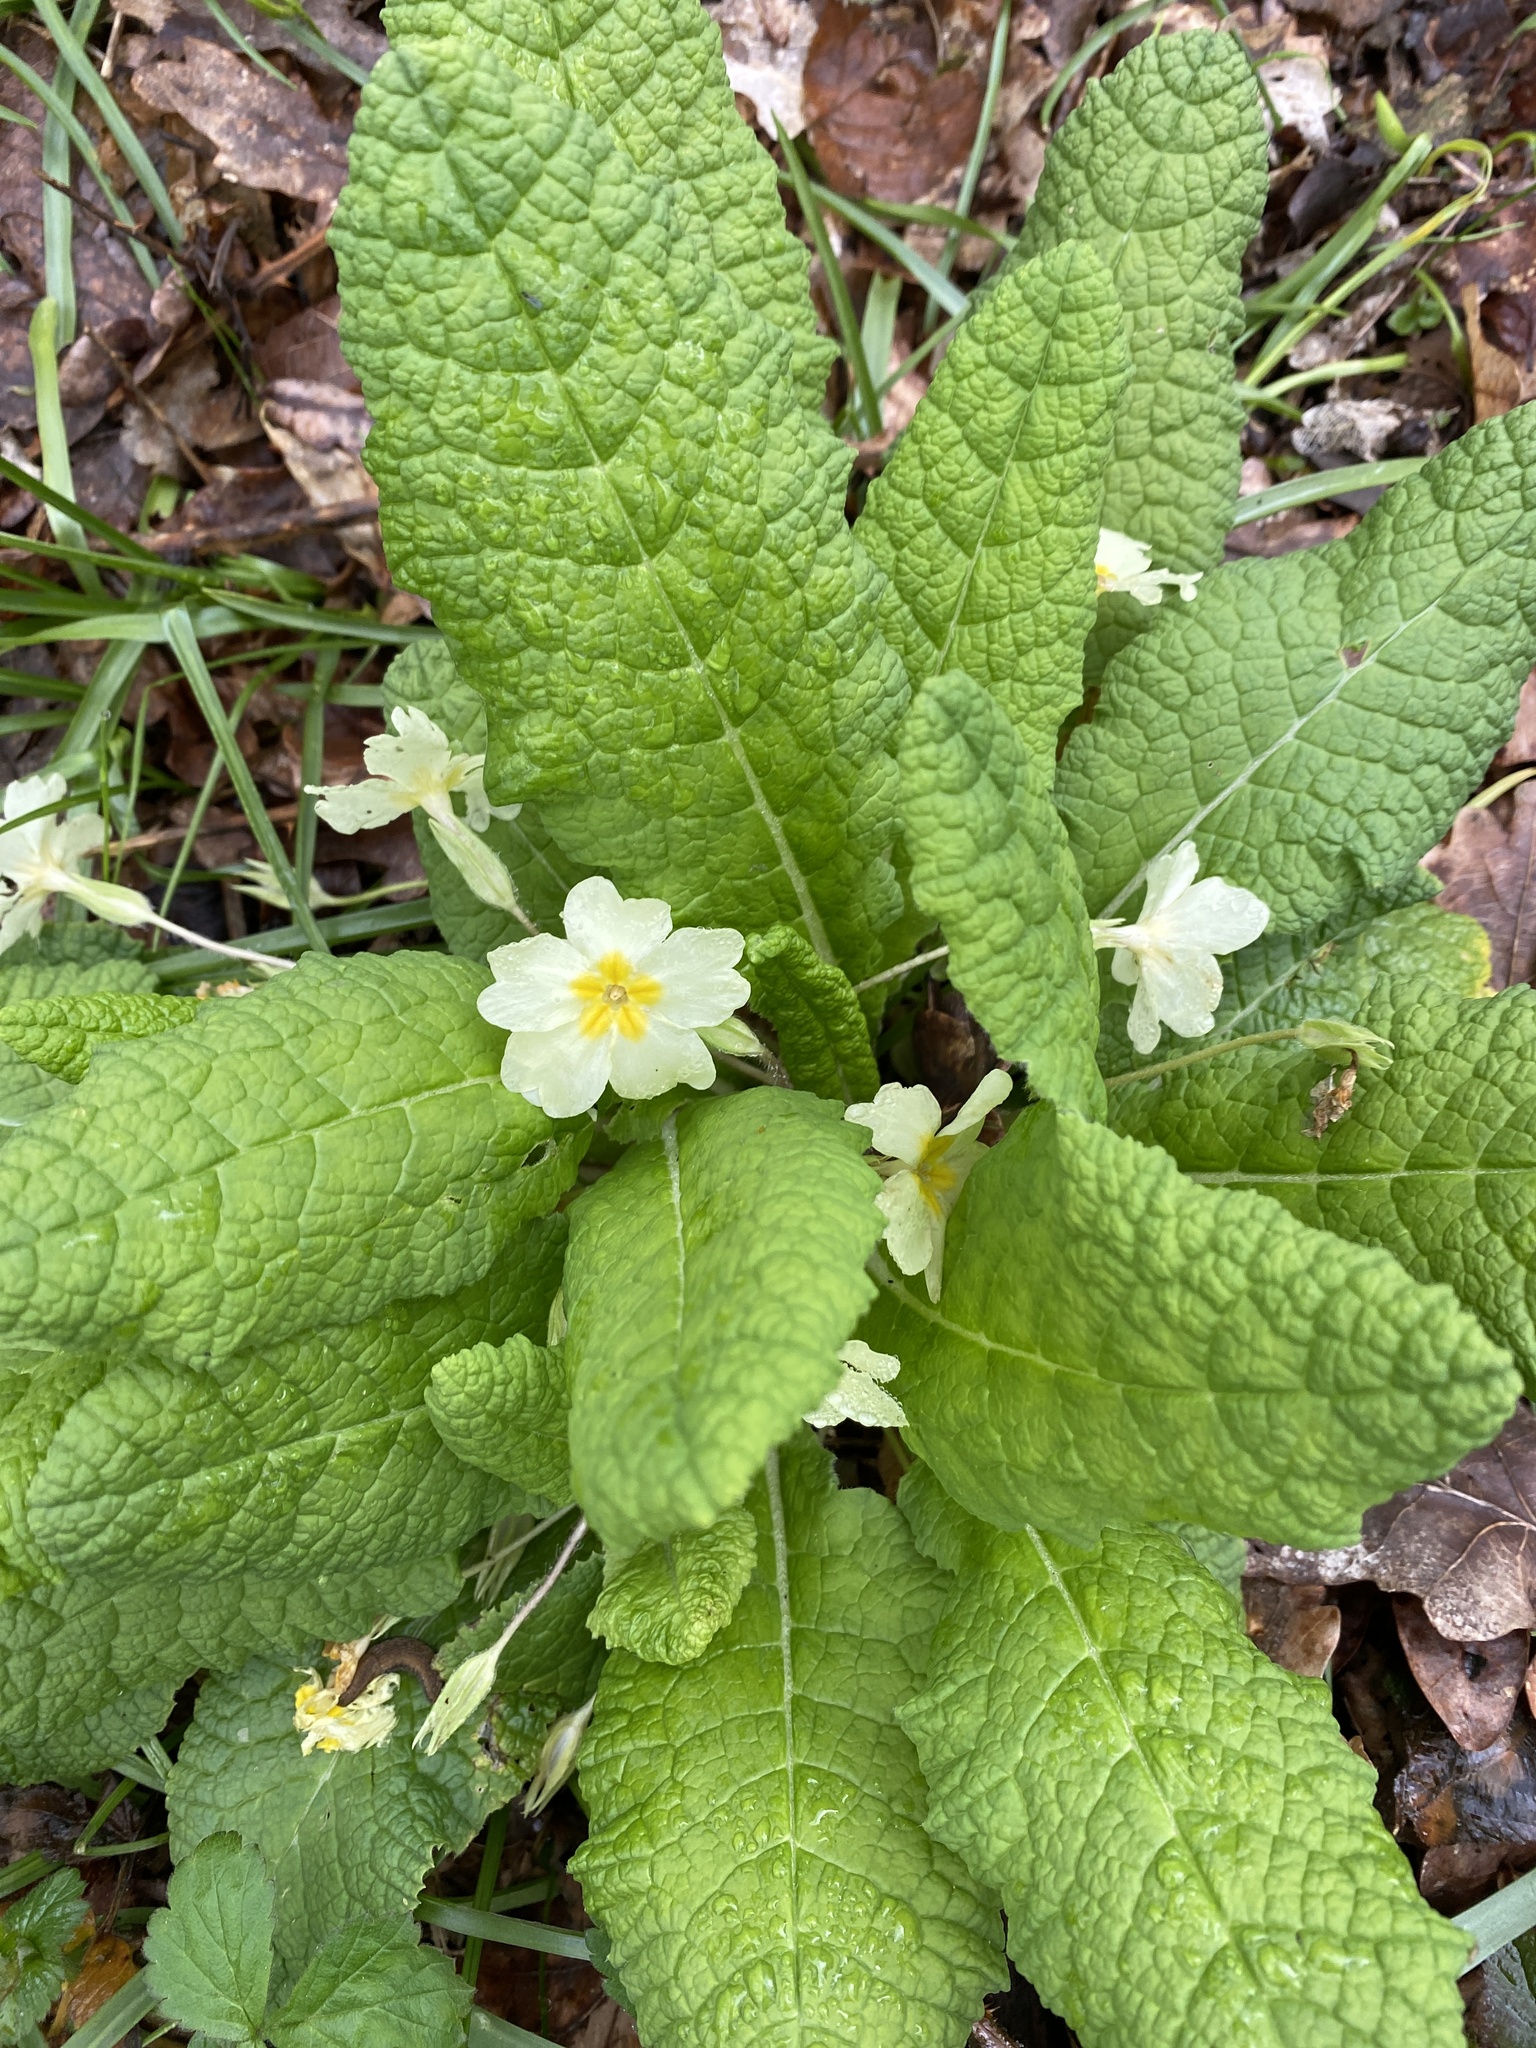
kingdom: Plantae
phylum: Tracheophyta
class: Magnoliopsida
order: Ericales
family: Primulaceae
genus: Primula
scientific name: Primula vulgaris
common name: Primrose
